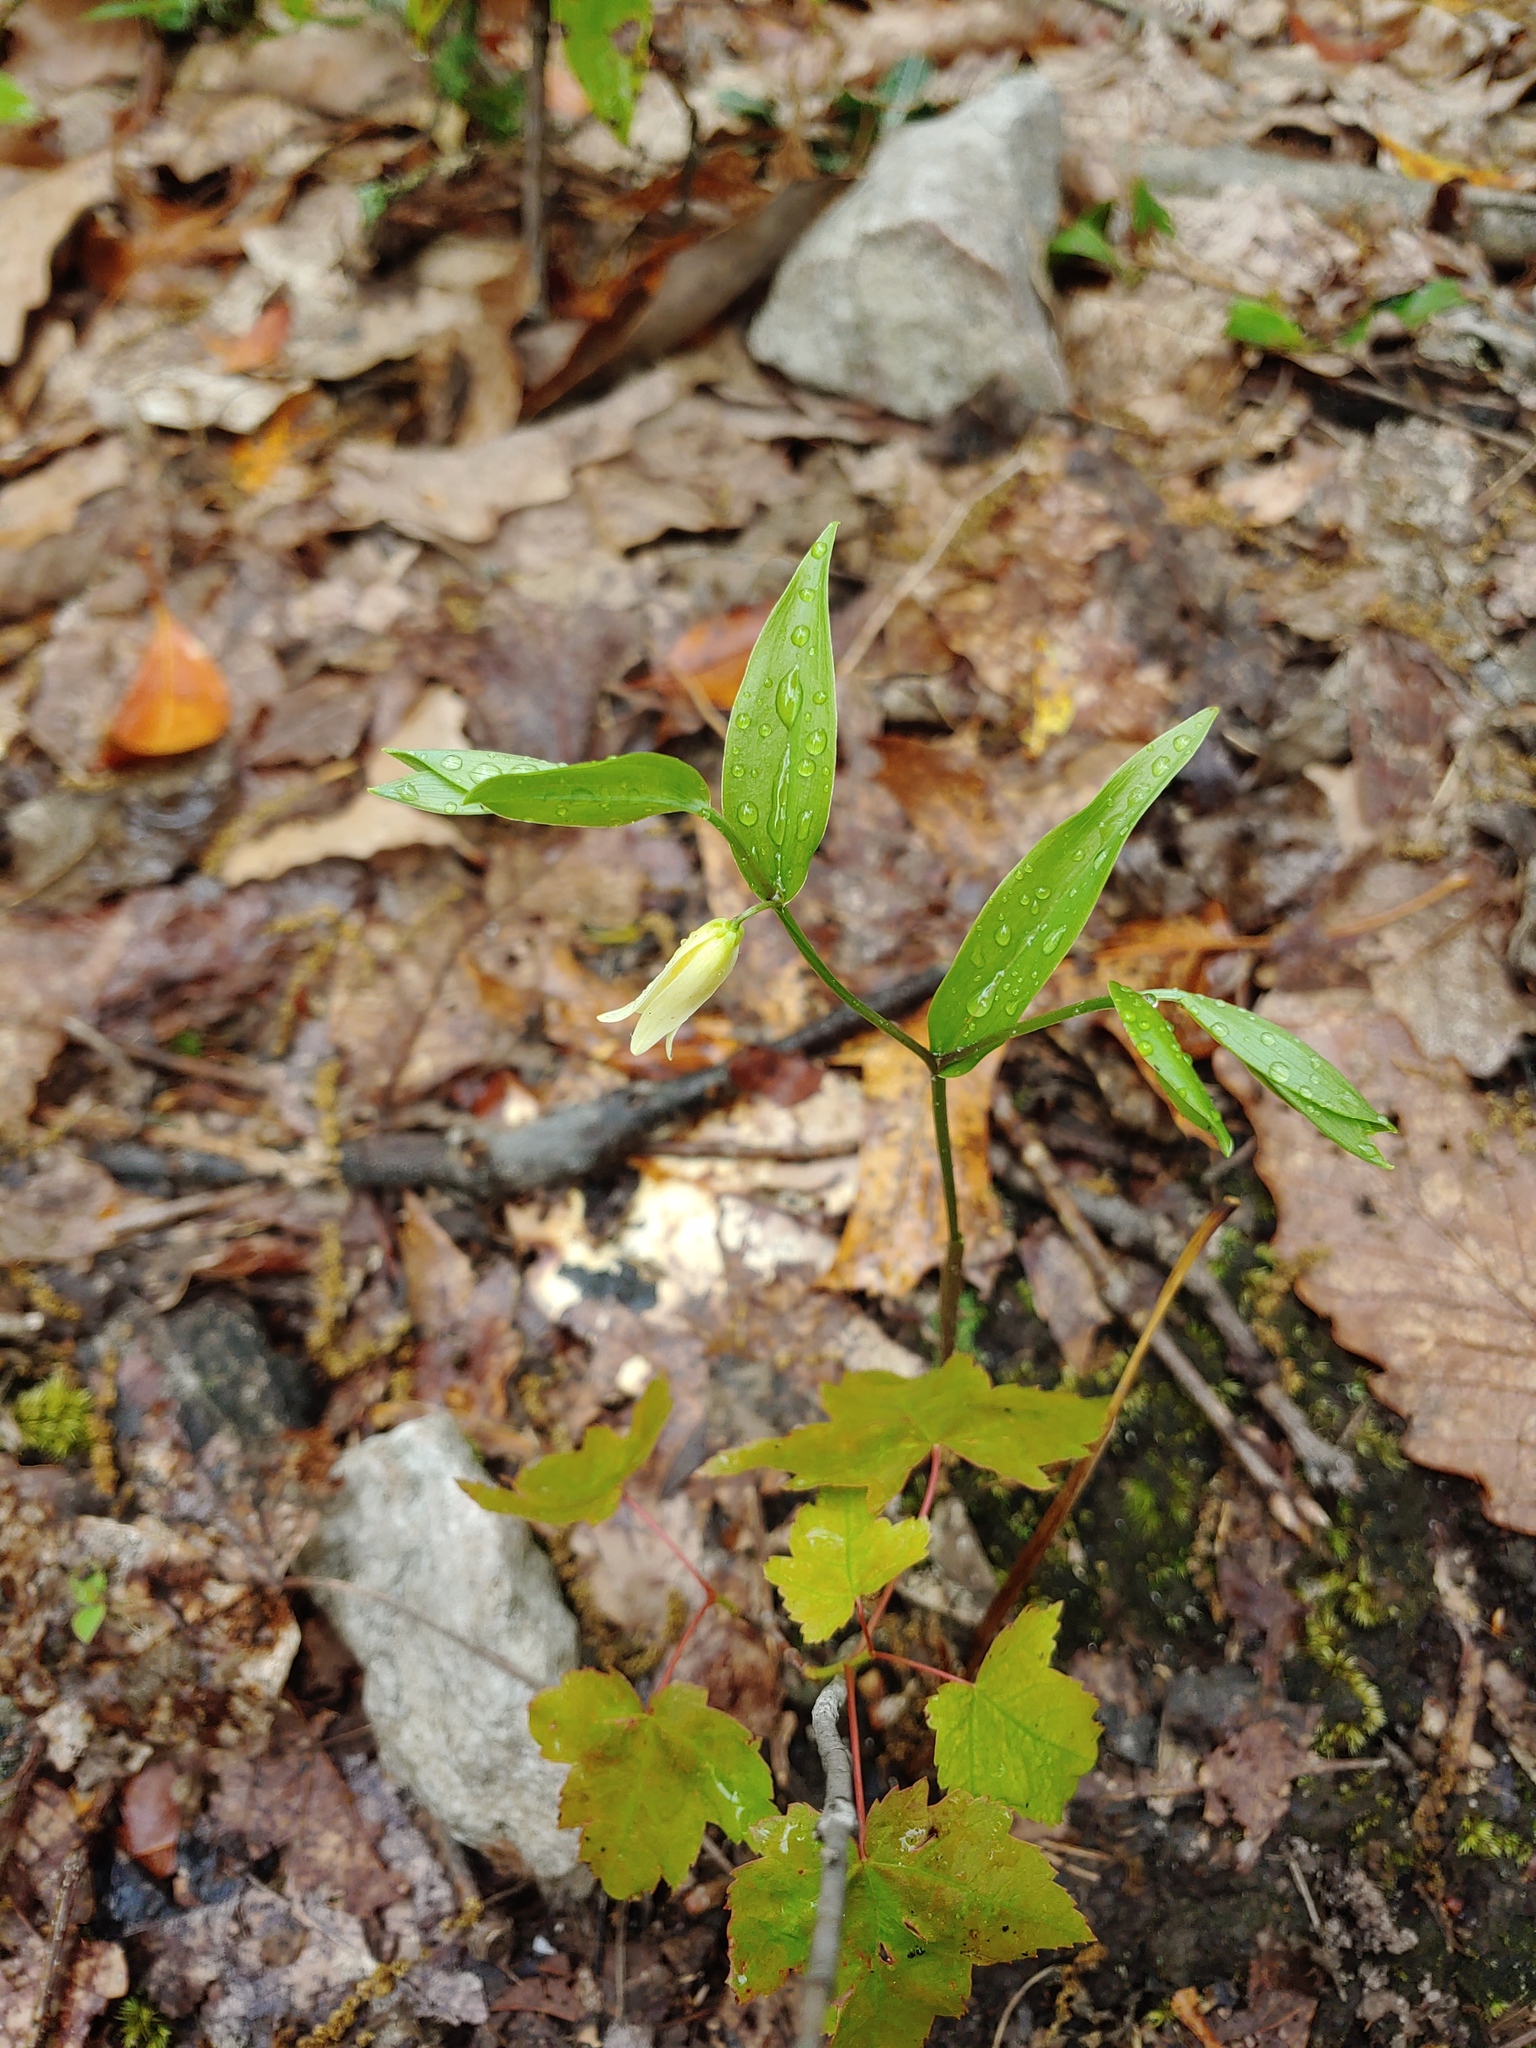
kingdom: Plantae
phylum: Tracheophyta
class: Liliopsida
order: Liliales
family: Colchicaceae
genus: Uvularia
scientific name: Uvularia puberula
